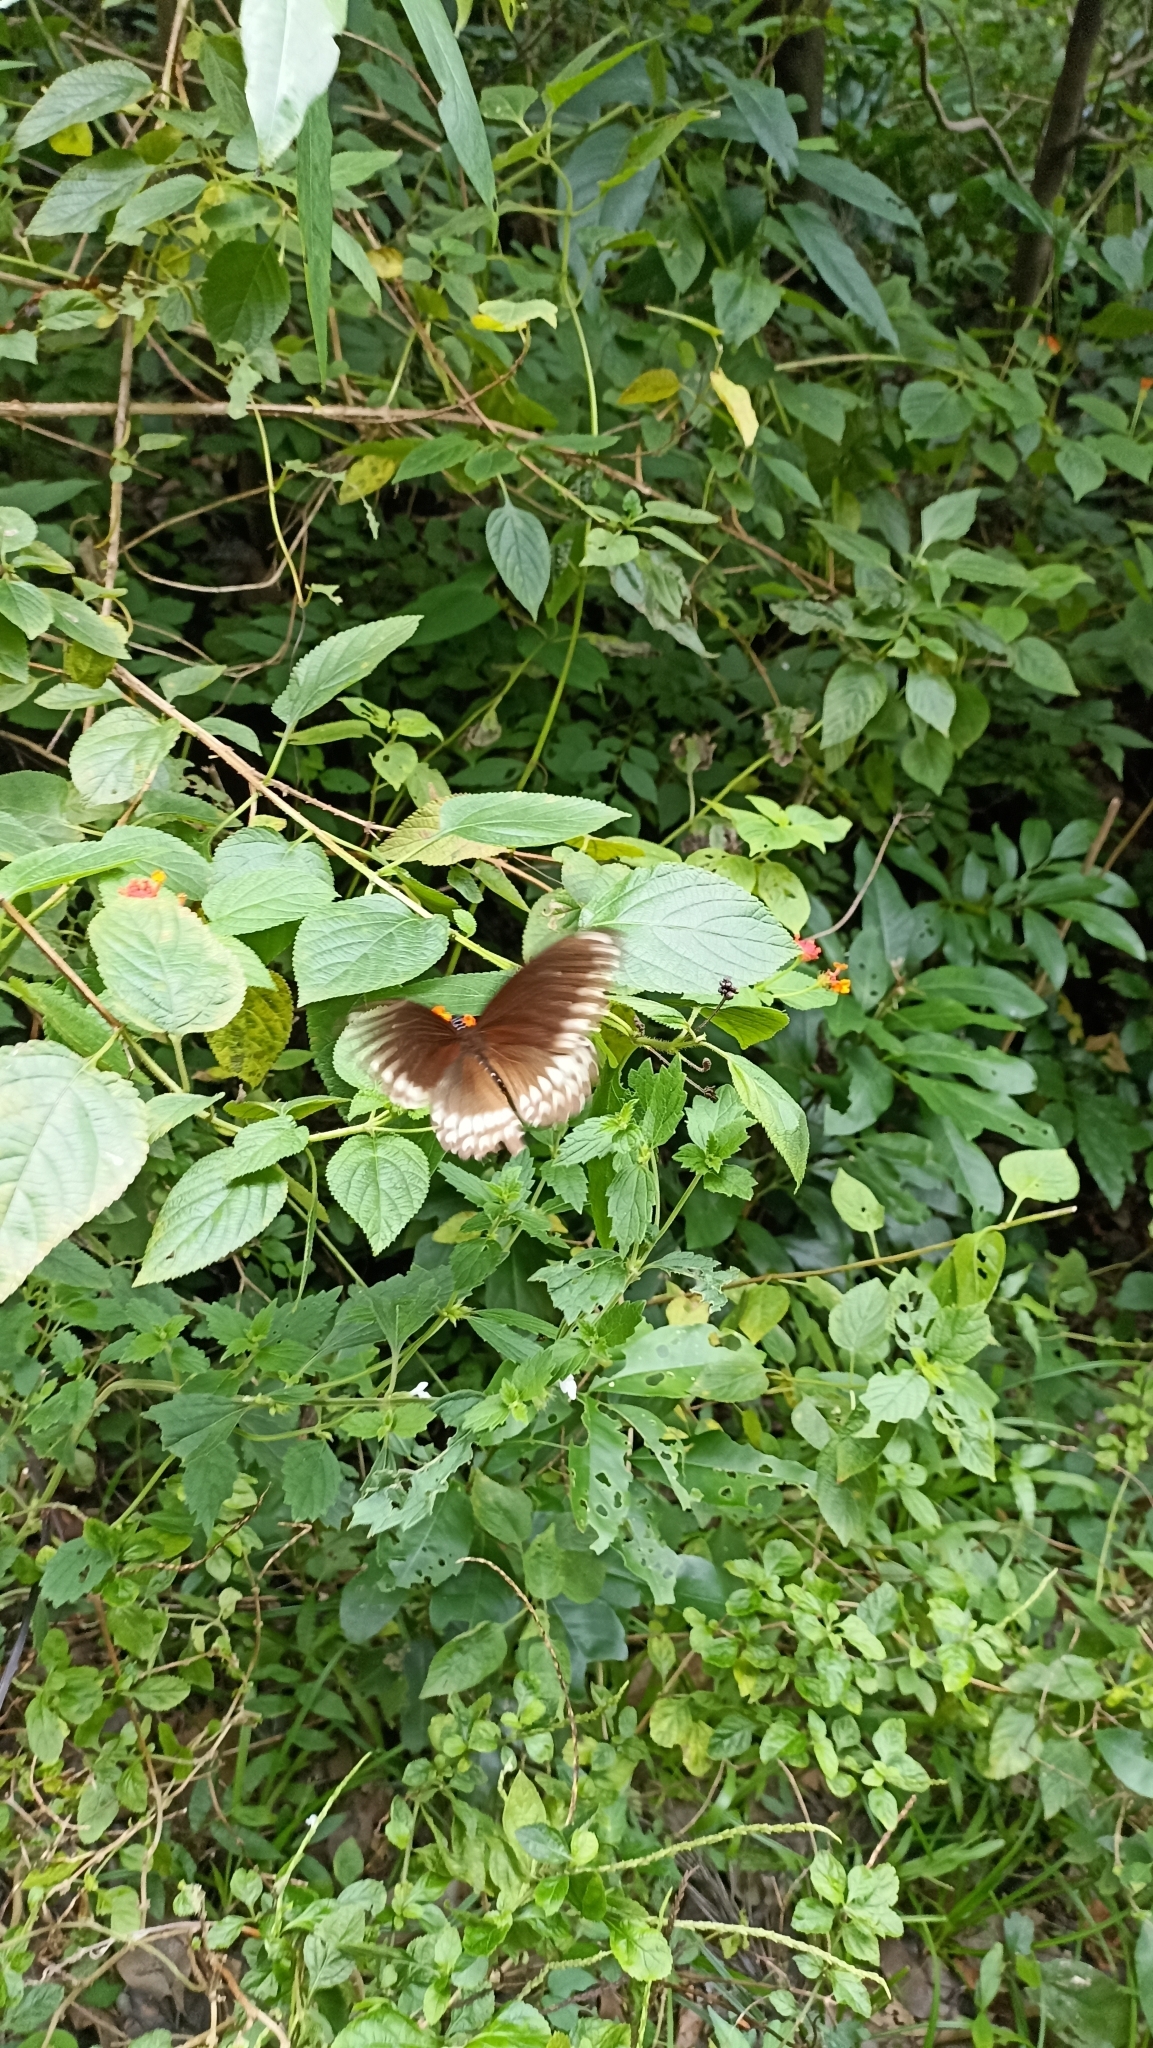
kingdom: Animalia
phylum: Arthropoda
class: Insecta
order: Lepidoptera
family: Papilionidae
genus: Papilio
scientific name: Papilio dravidarum
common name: Malabar raven
